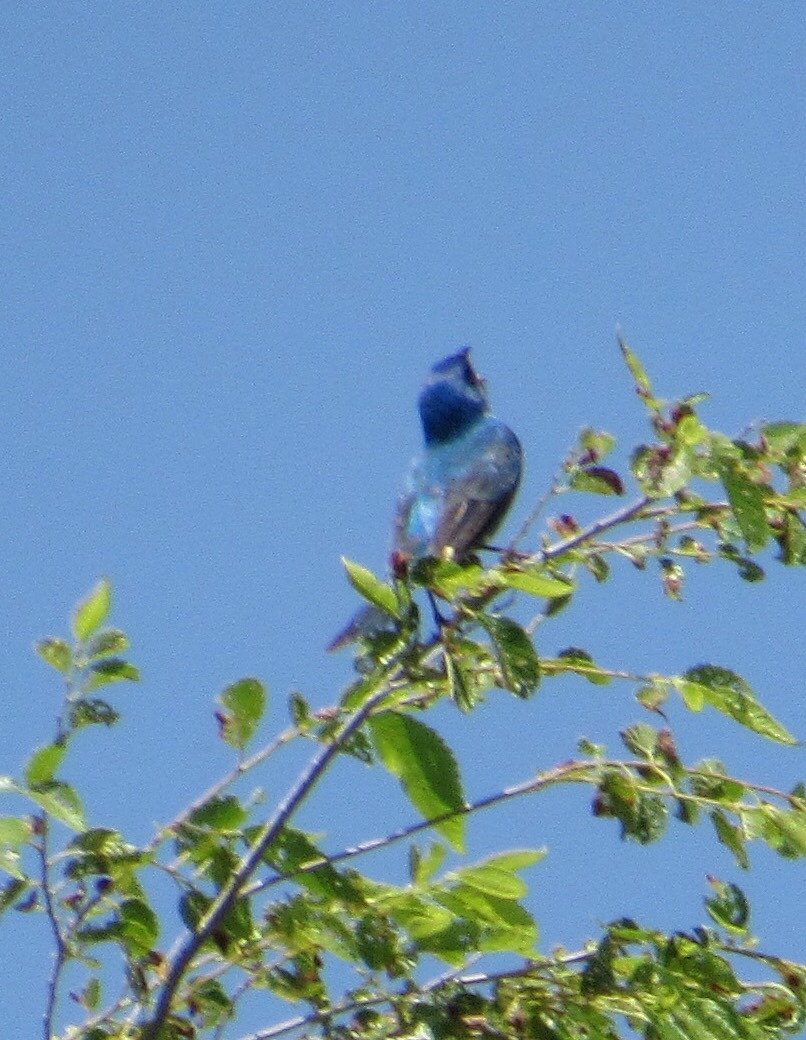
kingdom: Animalia
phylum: Chordata
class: Aves
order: Passeriformes
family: Cardinalidae
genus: Passerina
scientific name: Passerina cyanea
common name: Indigo bunting
